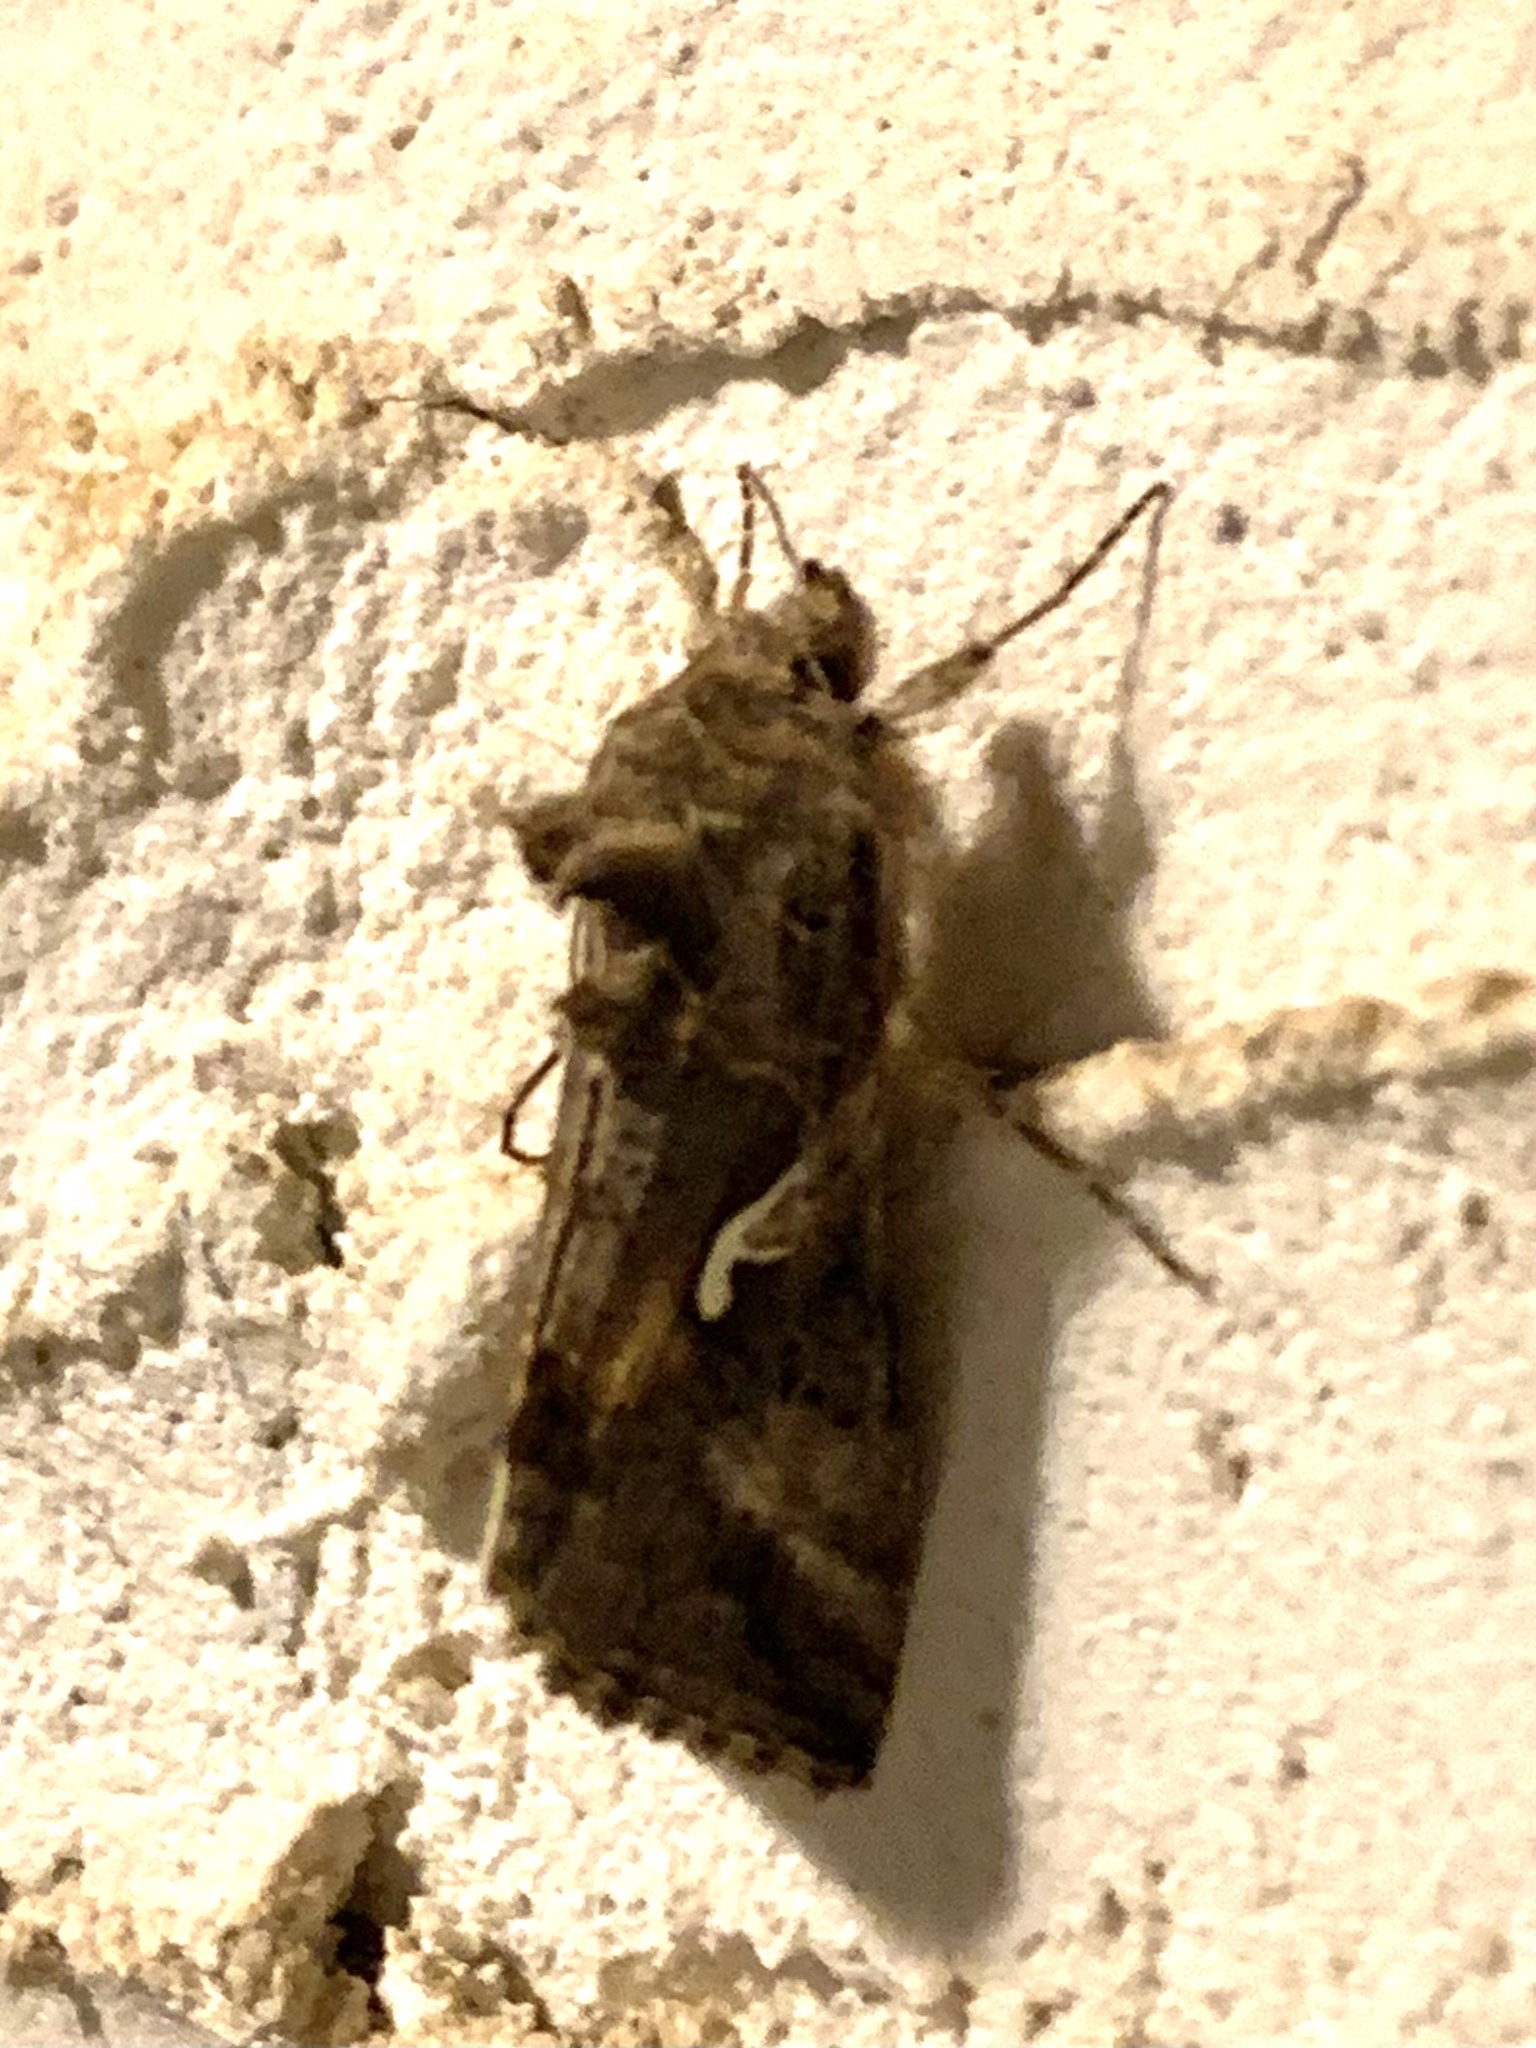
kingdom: Animalia
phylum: Arthropoda
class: Insecta
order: Lepidoptera
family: Noctuidae
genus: Autographa
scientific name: Autographa gamma
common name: Silver y
